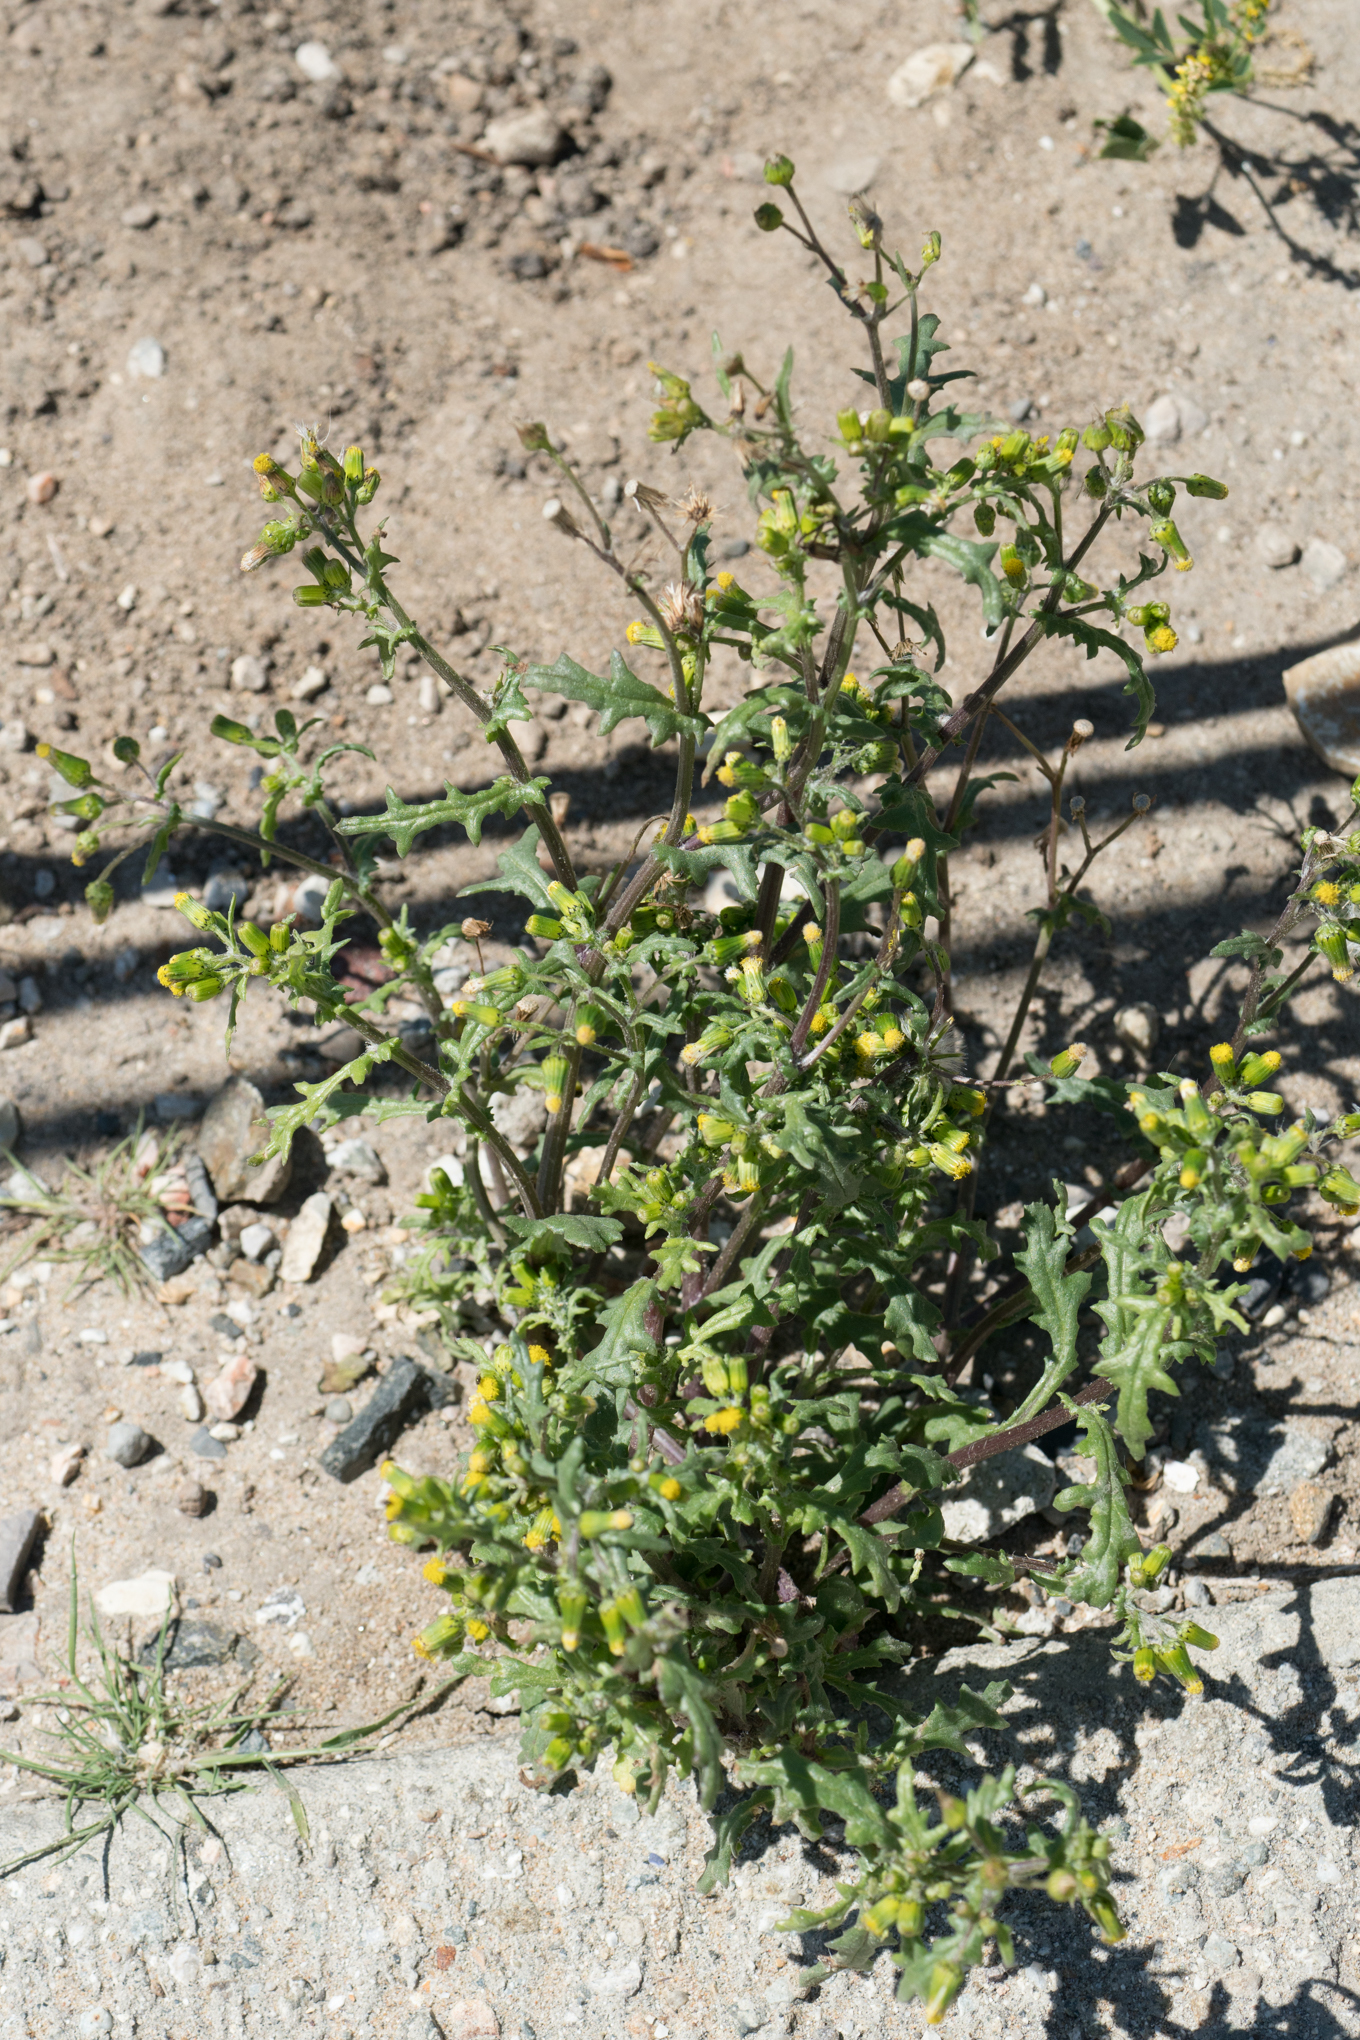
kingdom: Plantae
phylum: Tracheophyta
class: Magnoliopsida
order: Asterales
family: Asteraceae
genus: Senecio
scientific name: Senecio vulgaris
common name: Old-man-in-the-spring
